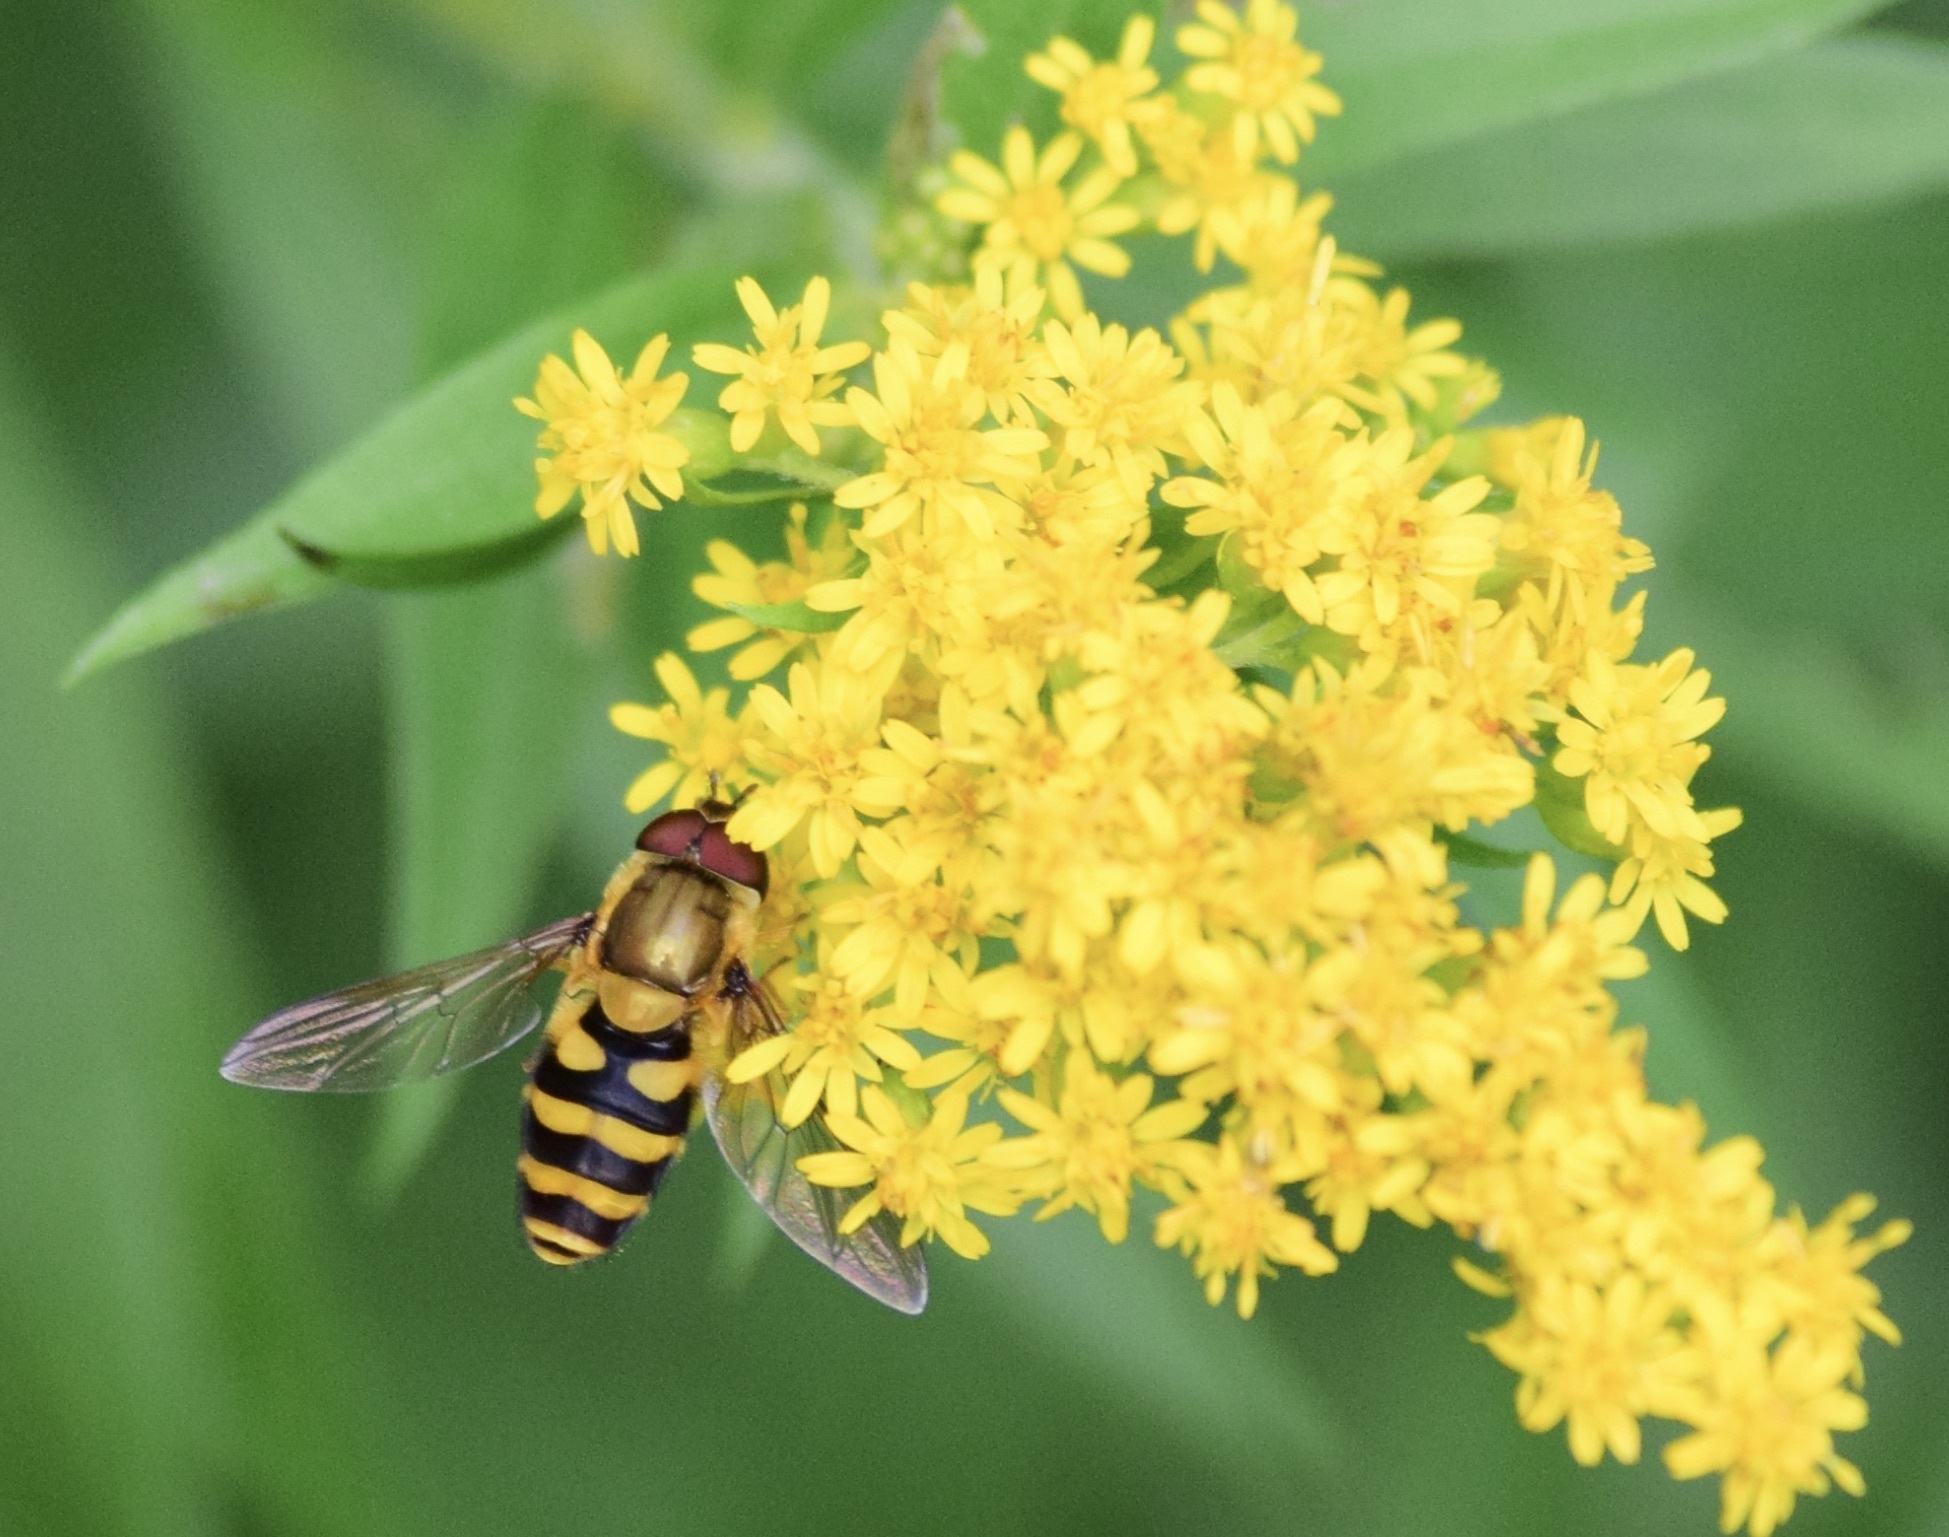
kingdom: Animalia
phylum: Arthropoda
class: Insecta
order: Diptera
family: Syrphidae
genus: Syrphus
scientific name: Syrphus
